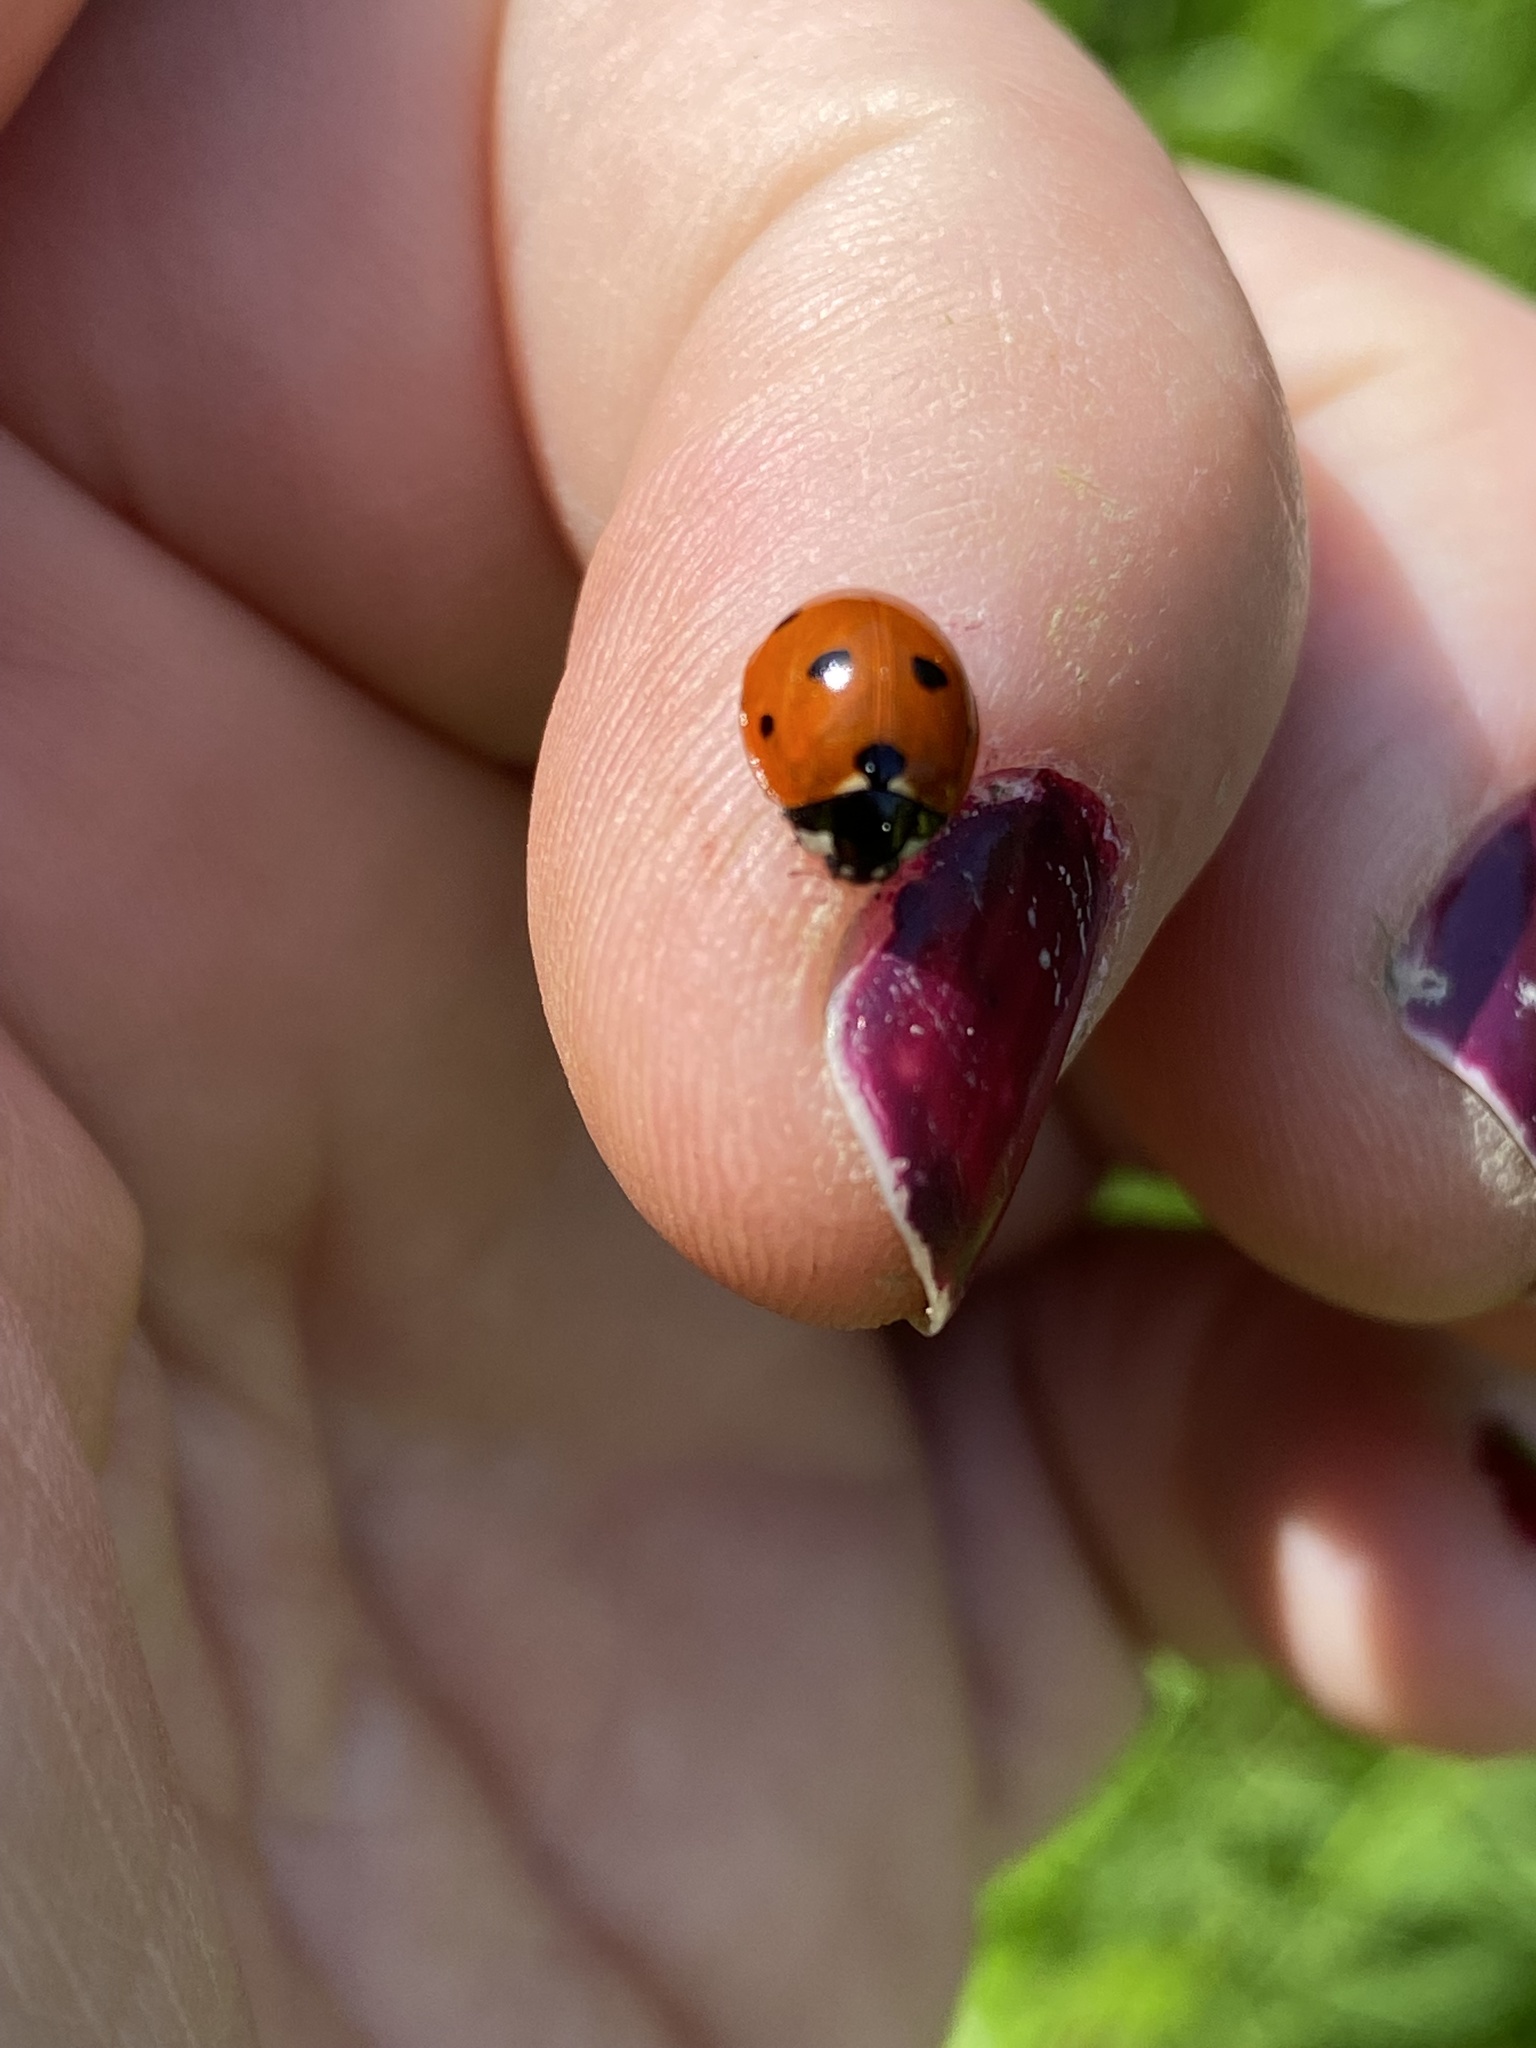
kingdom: Animalia
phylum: Arthropoda
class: Insecta
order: Coleoptera
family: Coccinellidae
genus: Coccinella
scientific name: Coccinella septempunctata
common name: Sevenspotted lady beetle
